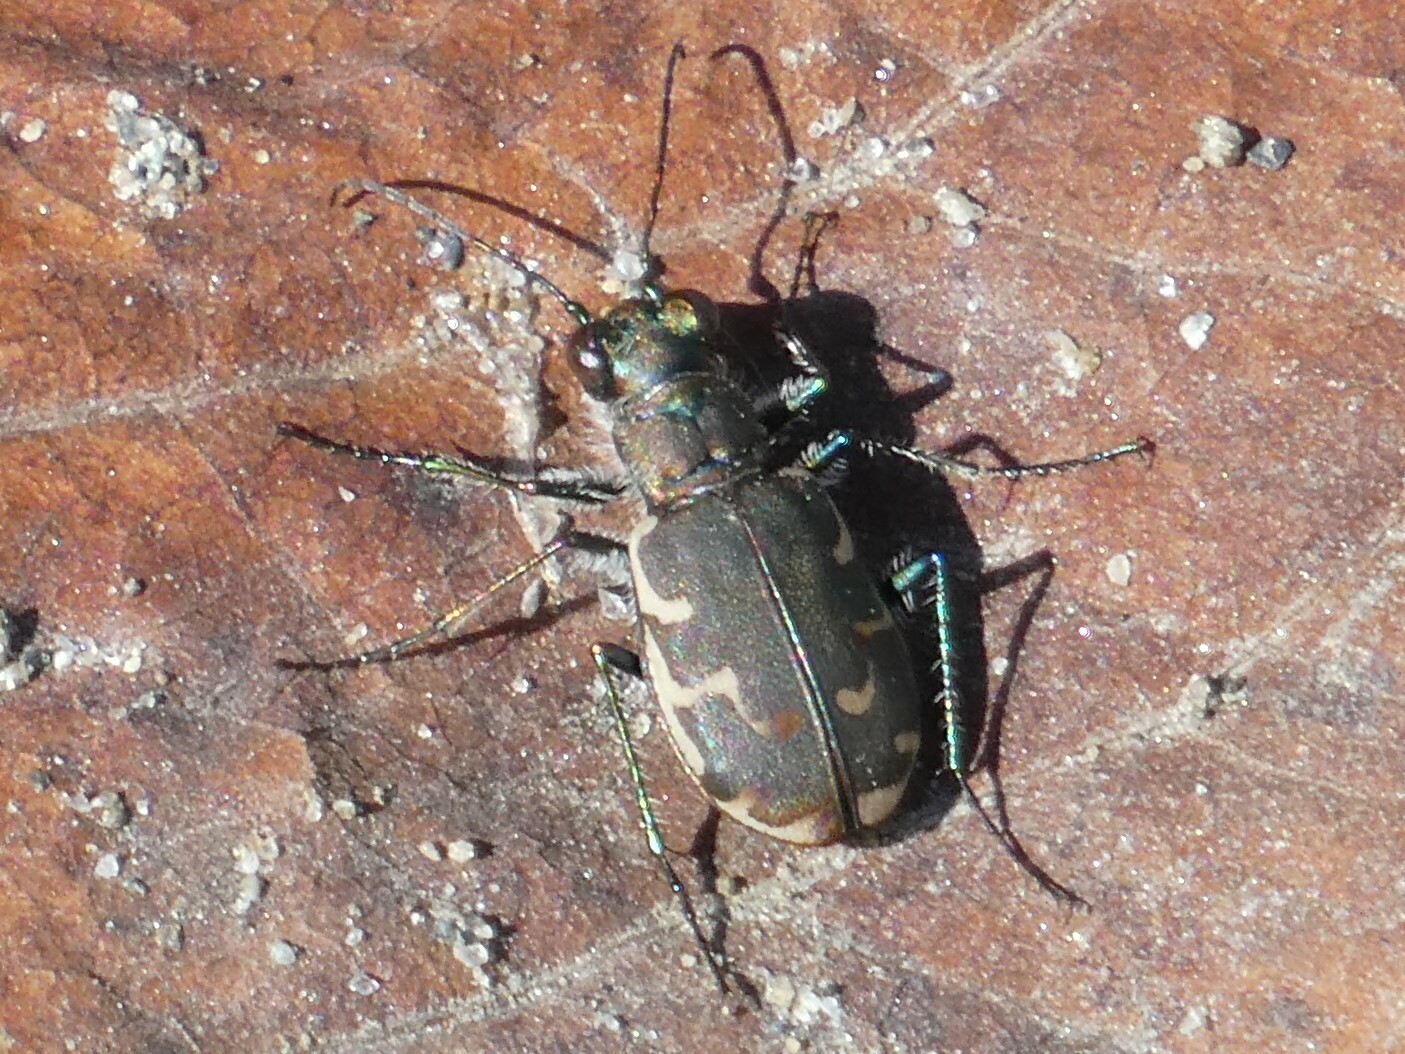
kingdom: Animalia
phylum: Arthropoda
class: Insecta
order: Coleoptera
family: Carabidae
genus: Cicindela
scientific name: Cicindela repanda
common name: Bronzed tiger beetle
